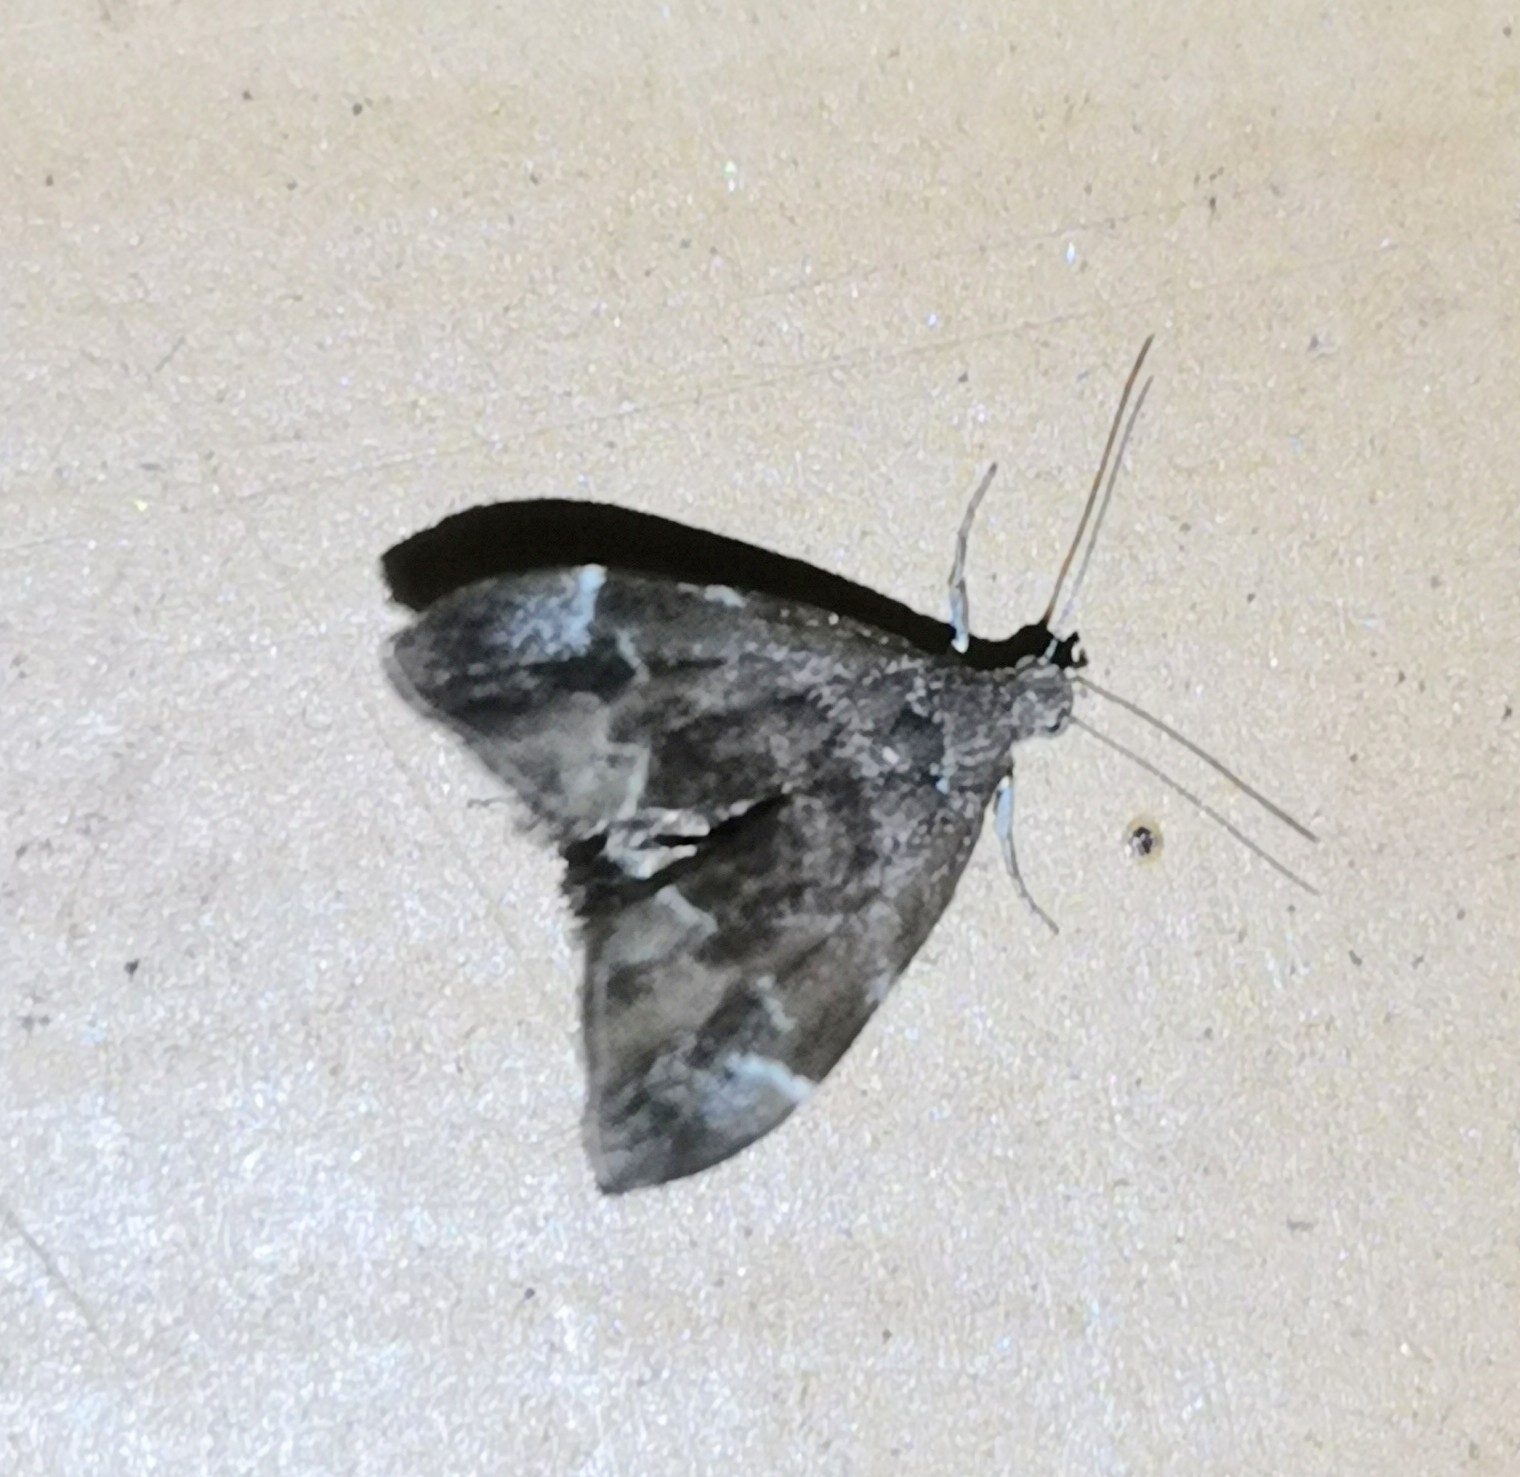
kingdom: Animalia
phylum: Arthropoda
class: Insecta
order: Lepidoptera
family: Choreutidae
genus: Anthophila
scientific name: Anthophila fabriciana
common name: Nettle-tap
